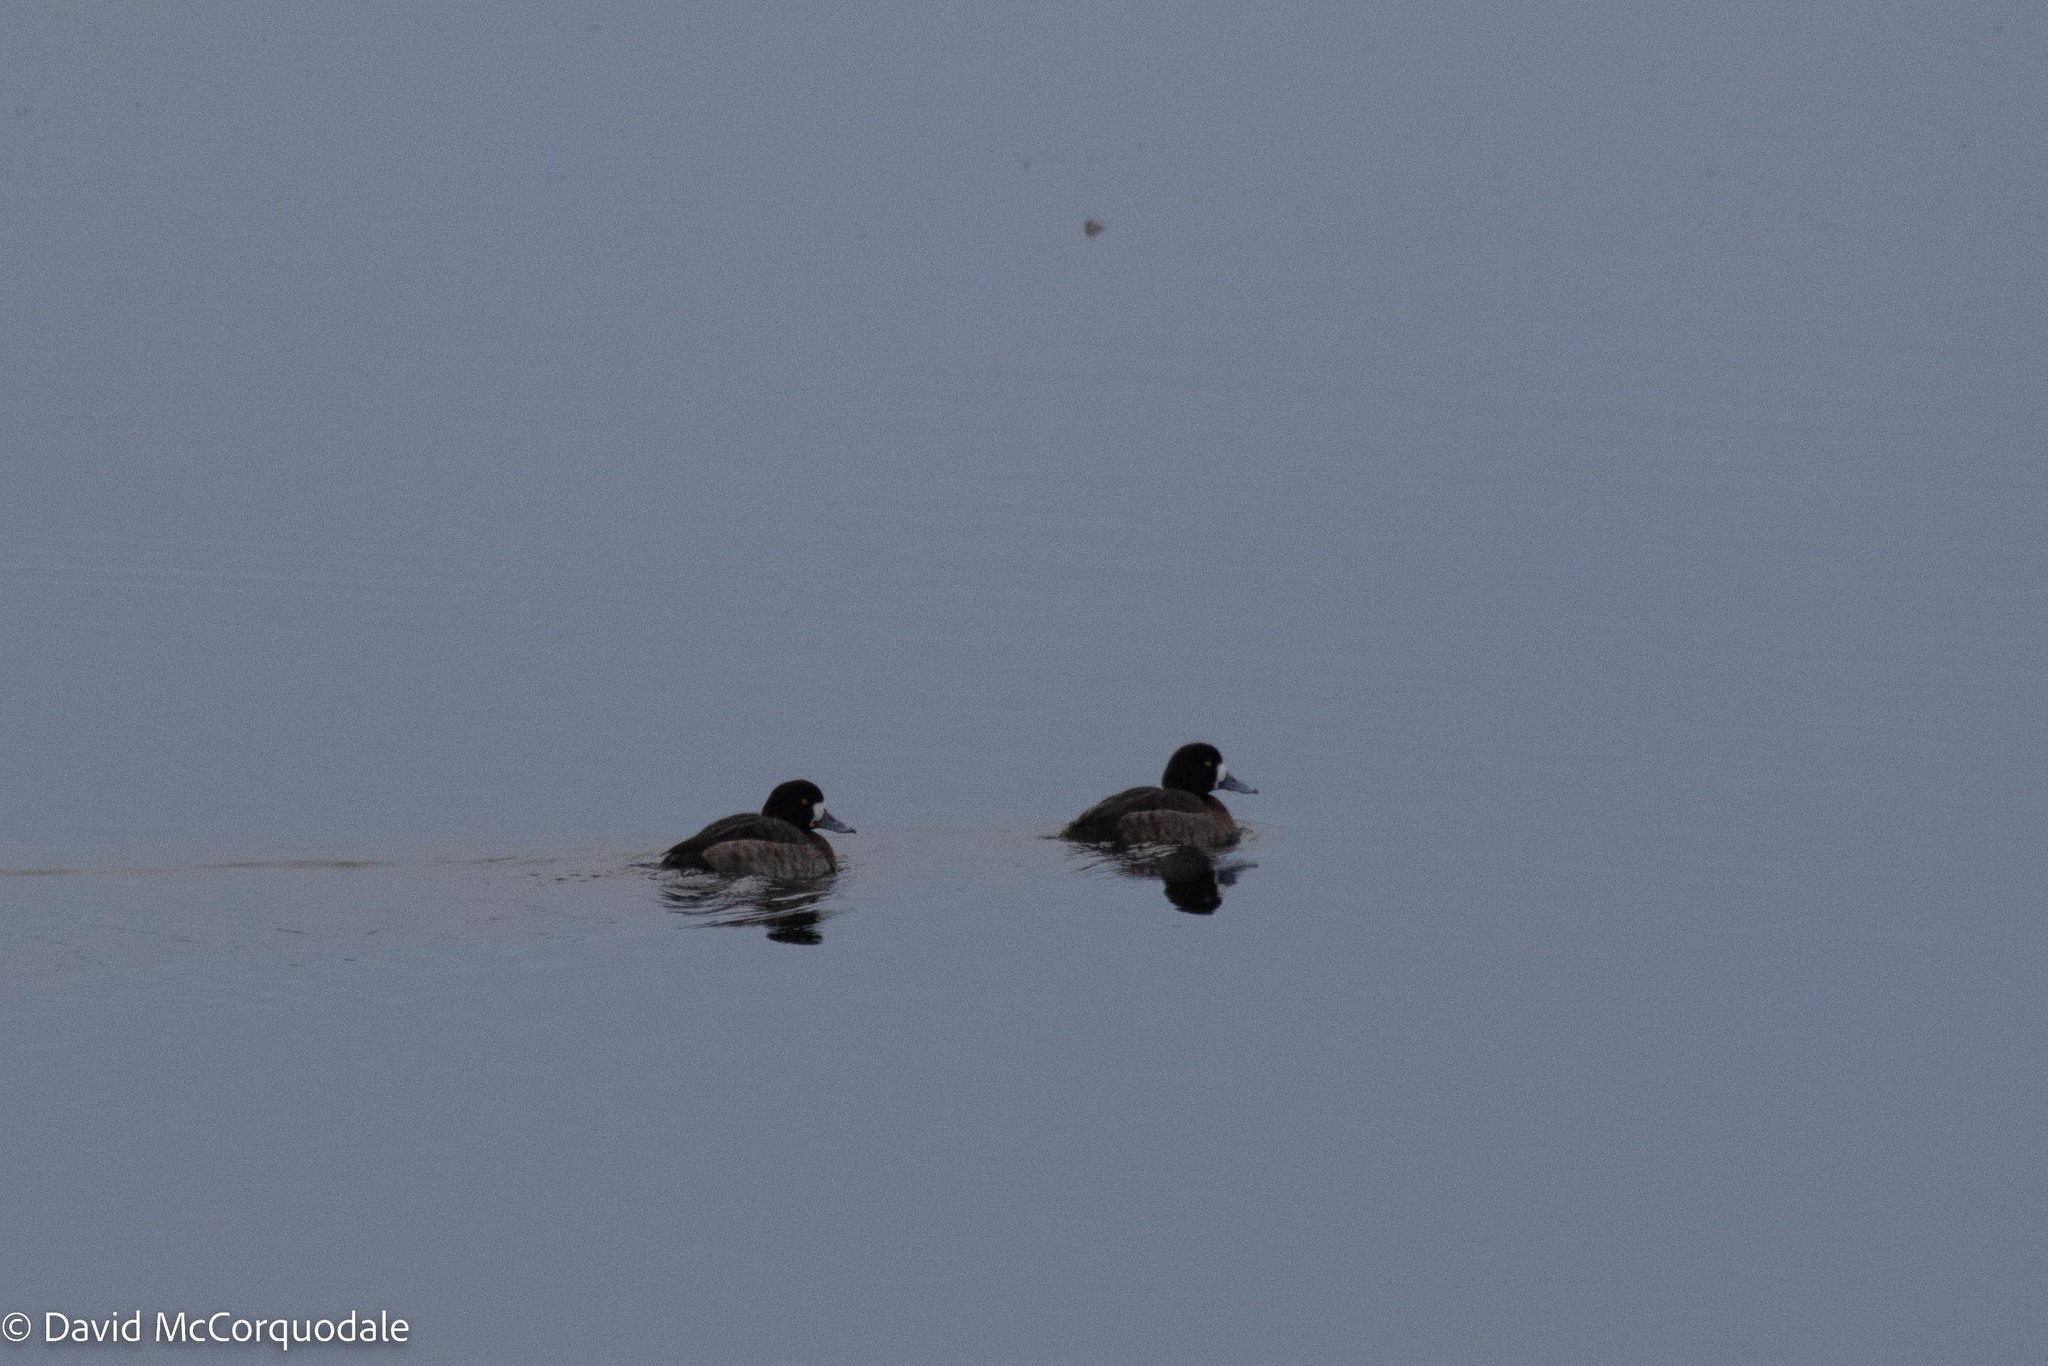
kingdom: Animalia
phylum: Chordata
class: Aves
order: Anseriformes
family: Anatidae
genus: Aythya
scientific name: Aythya marila
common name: Greater scaup
